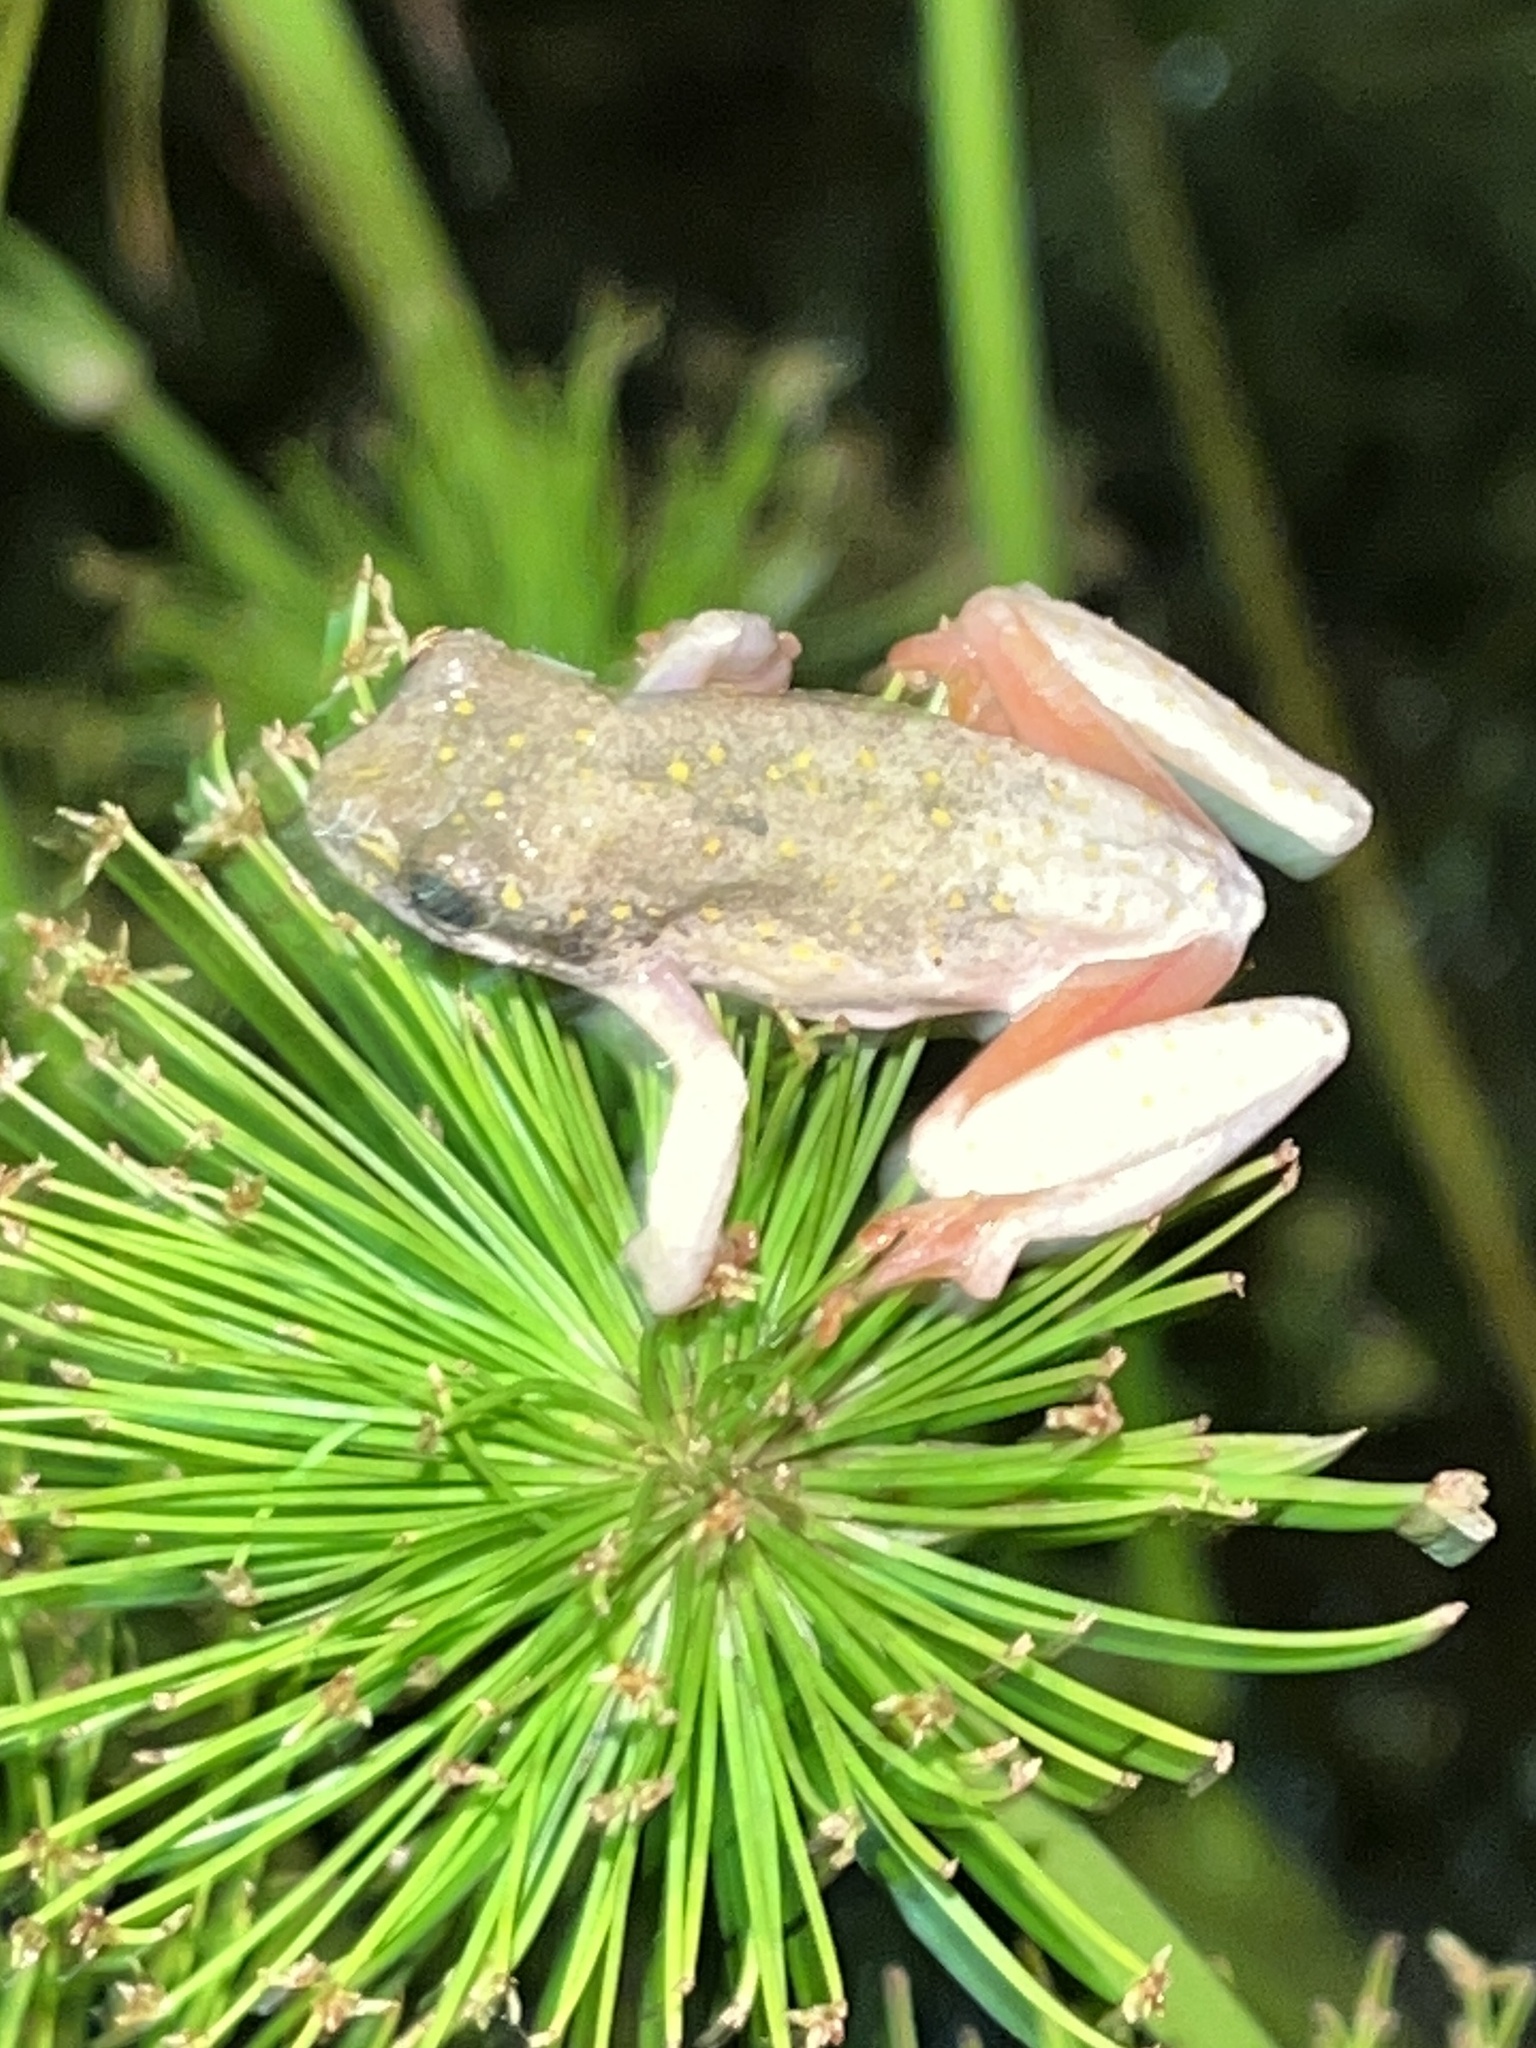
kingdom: Animalia
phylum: Chordata
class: Amphibia
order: Anura
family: Hyperoliidae
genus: Hyperolius
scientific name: Hyperolius marmoratus
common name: Painted reed frog
